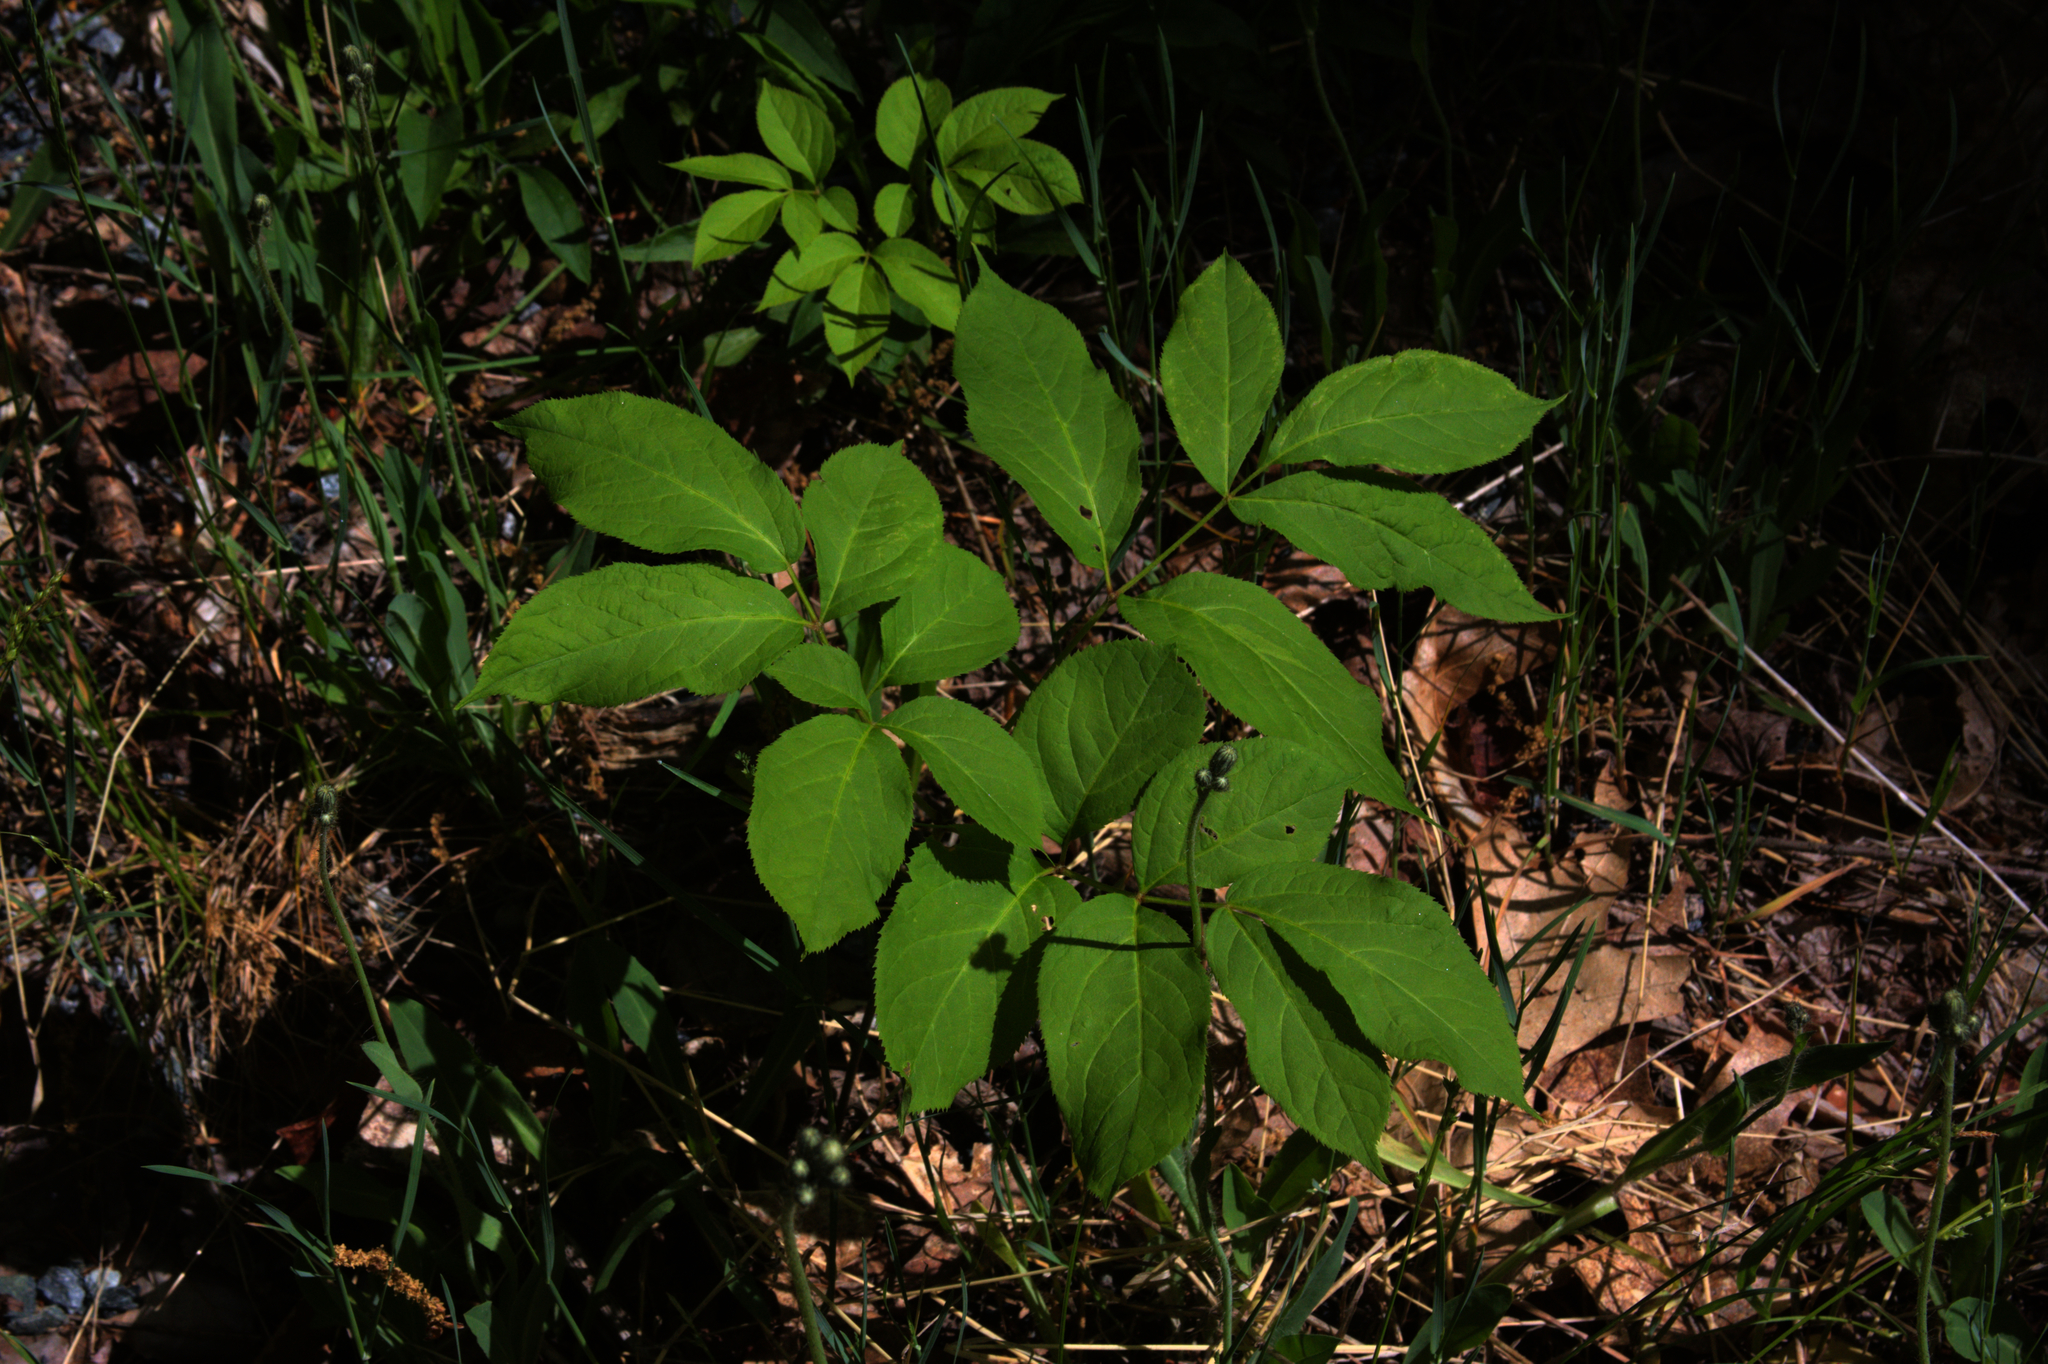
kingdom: Plantae
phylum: Tracheophyta
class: Magnoliopsida
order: Apiales
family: Araliaceae
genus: Aralia
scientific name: Aralia nudicaulis
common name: Wild sarsaparilla
